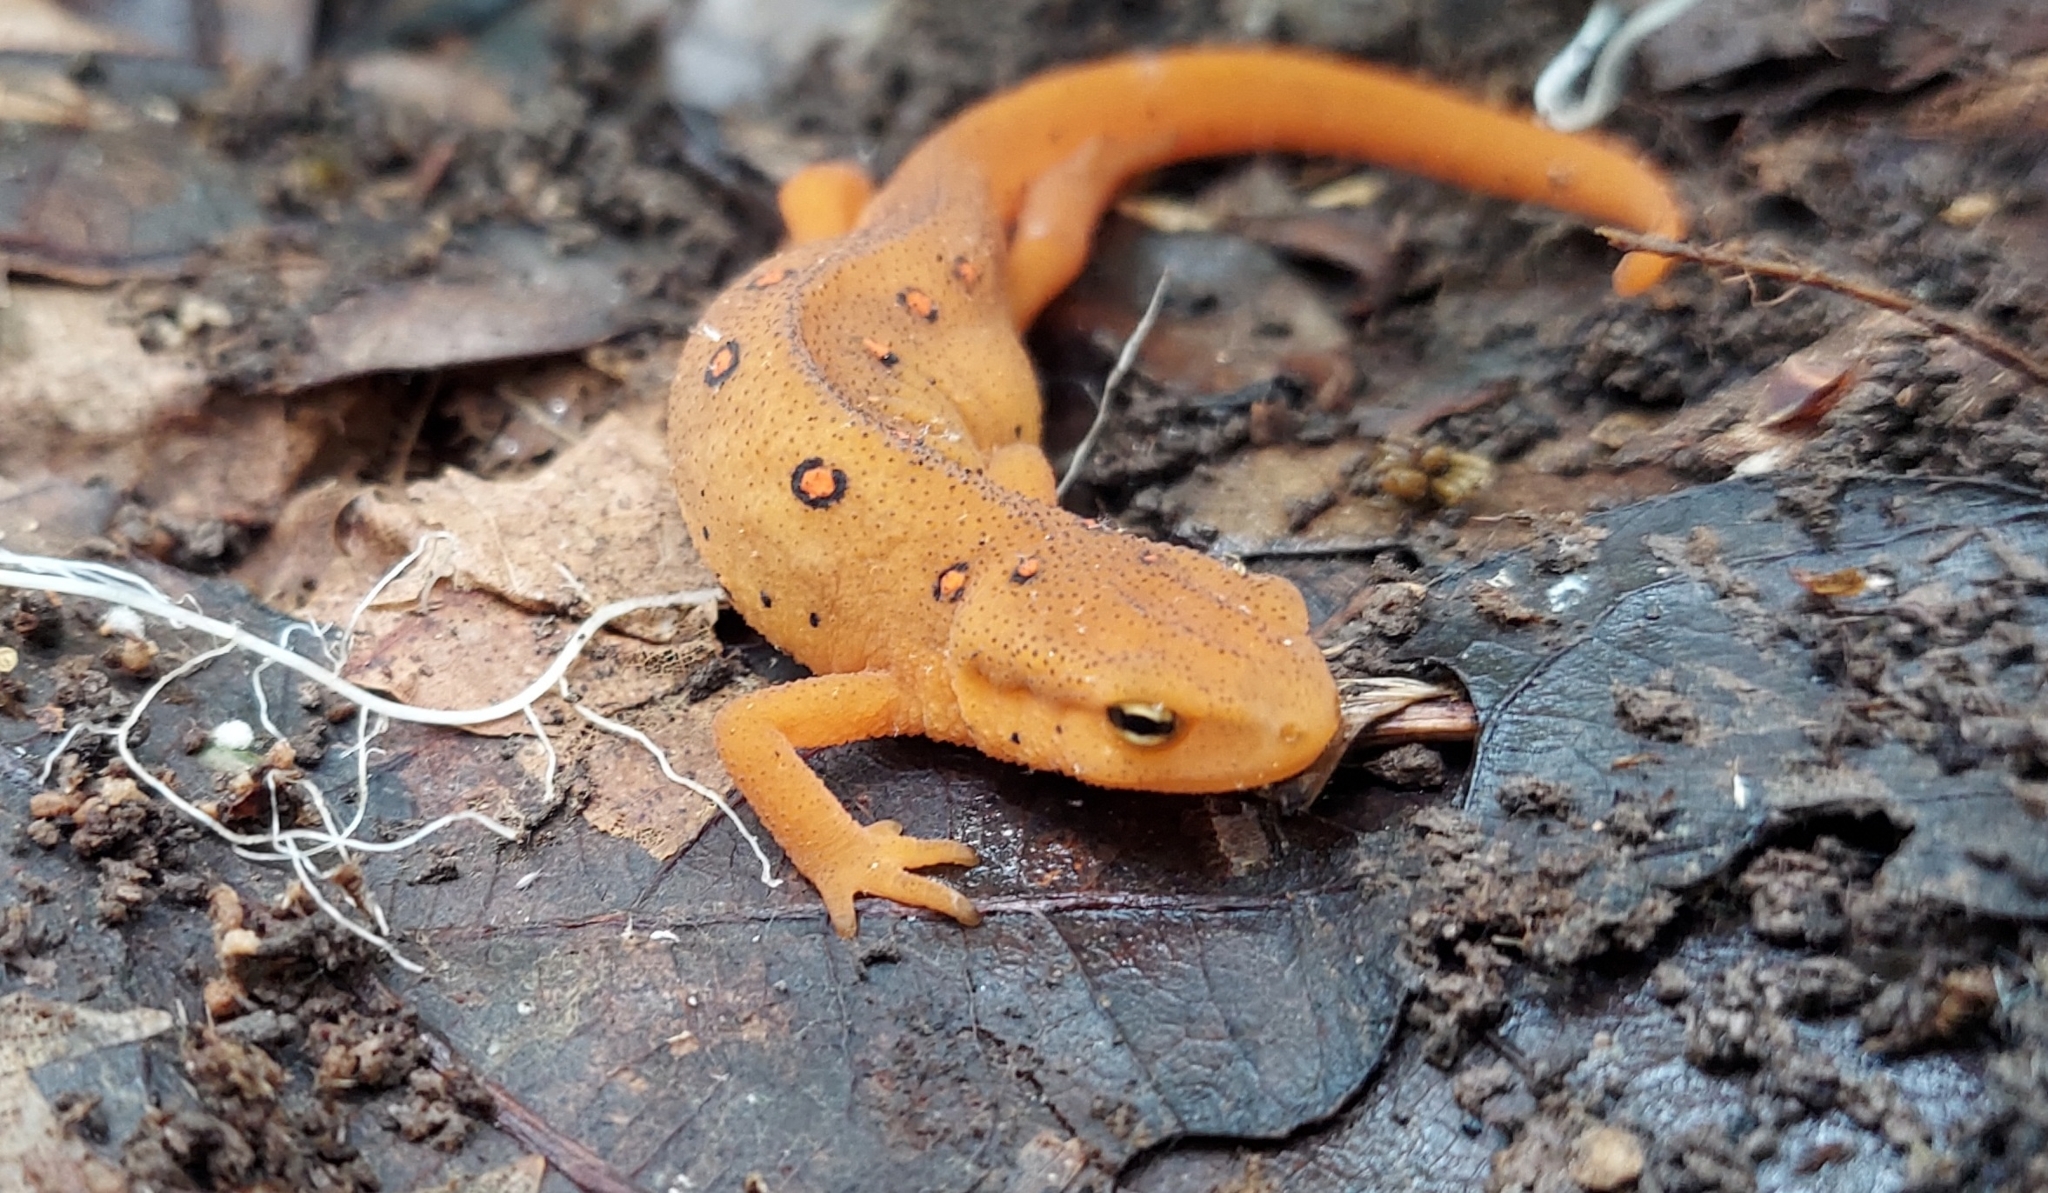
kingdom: Animalia
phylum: Chordata
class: Amphibia
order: Caudata
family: Salamandridae
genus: Notophthalmus
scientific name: Notophthalmus viridescens
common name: Eastern newt
